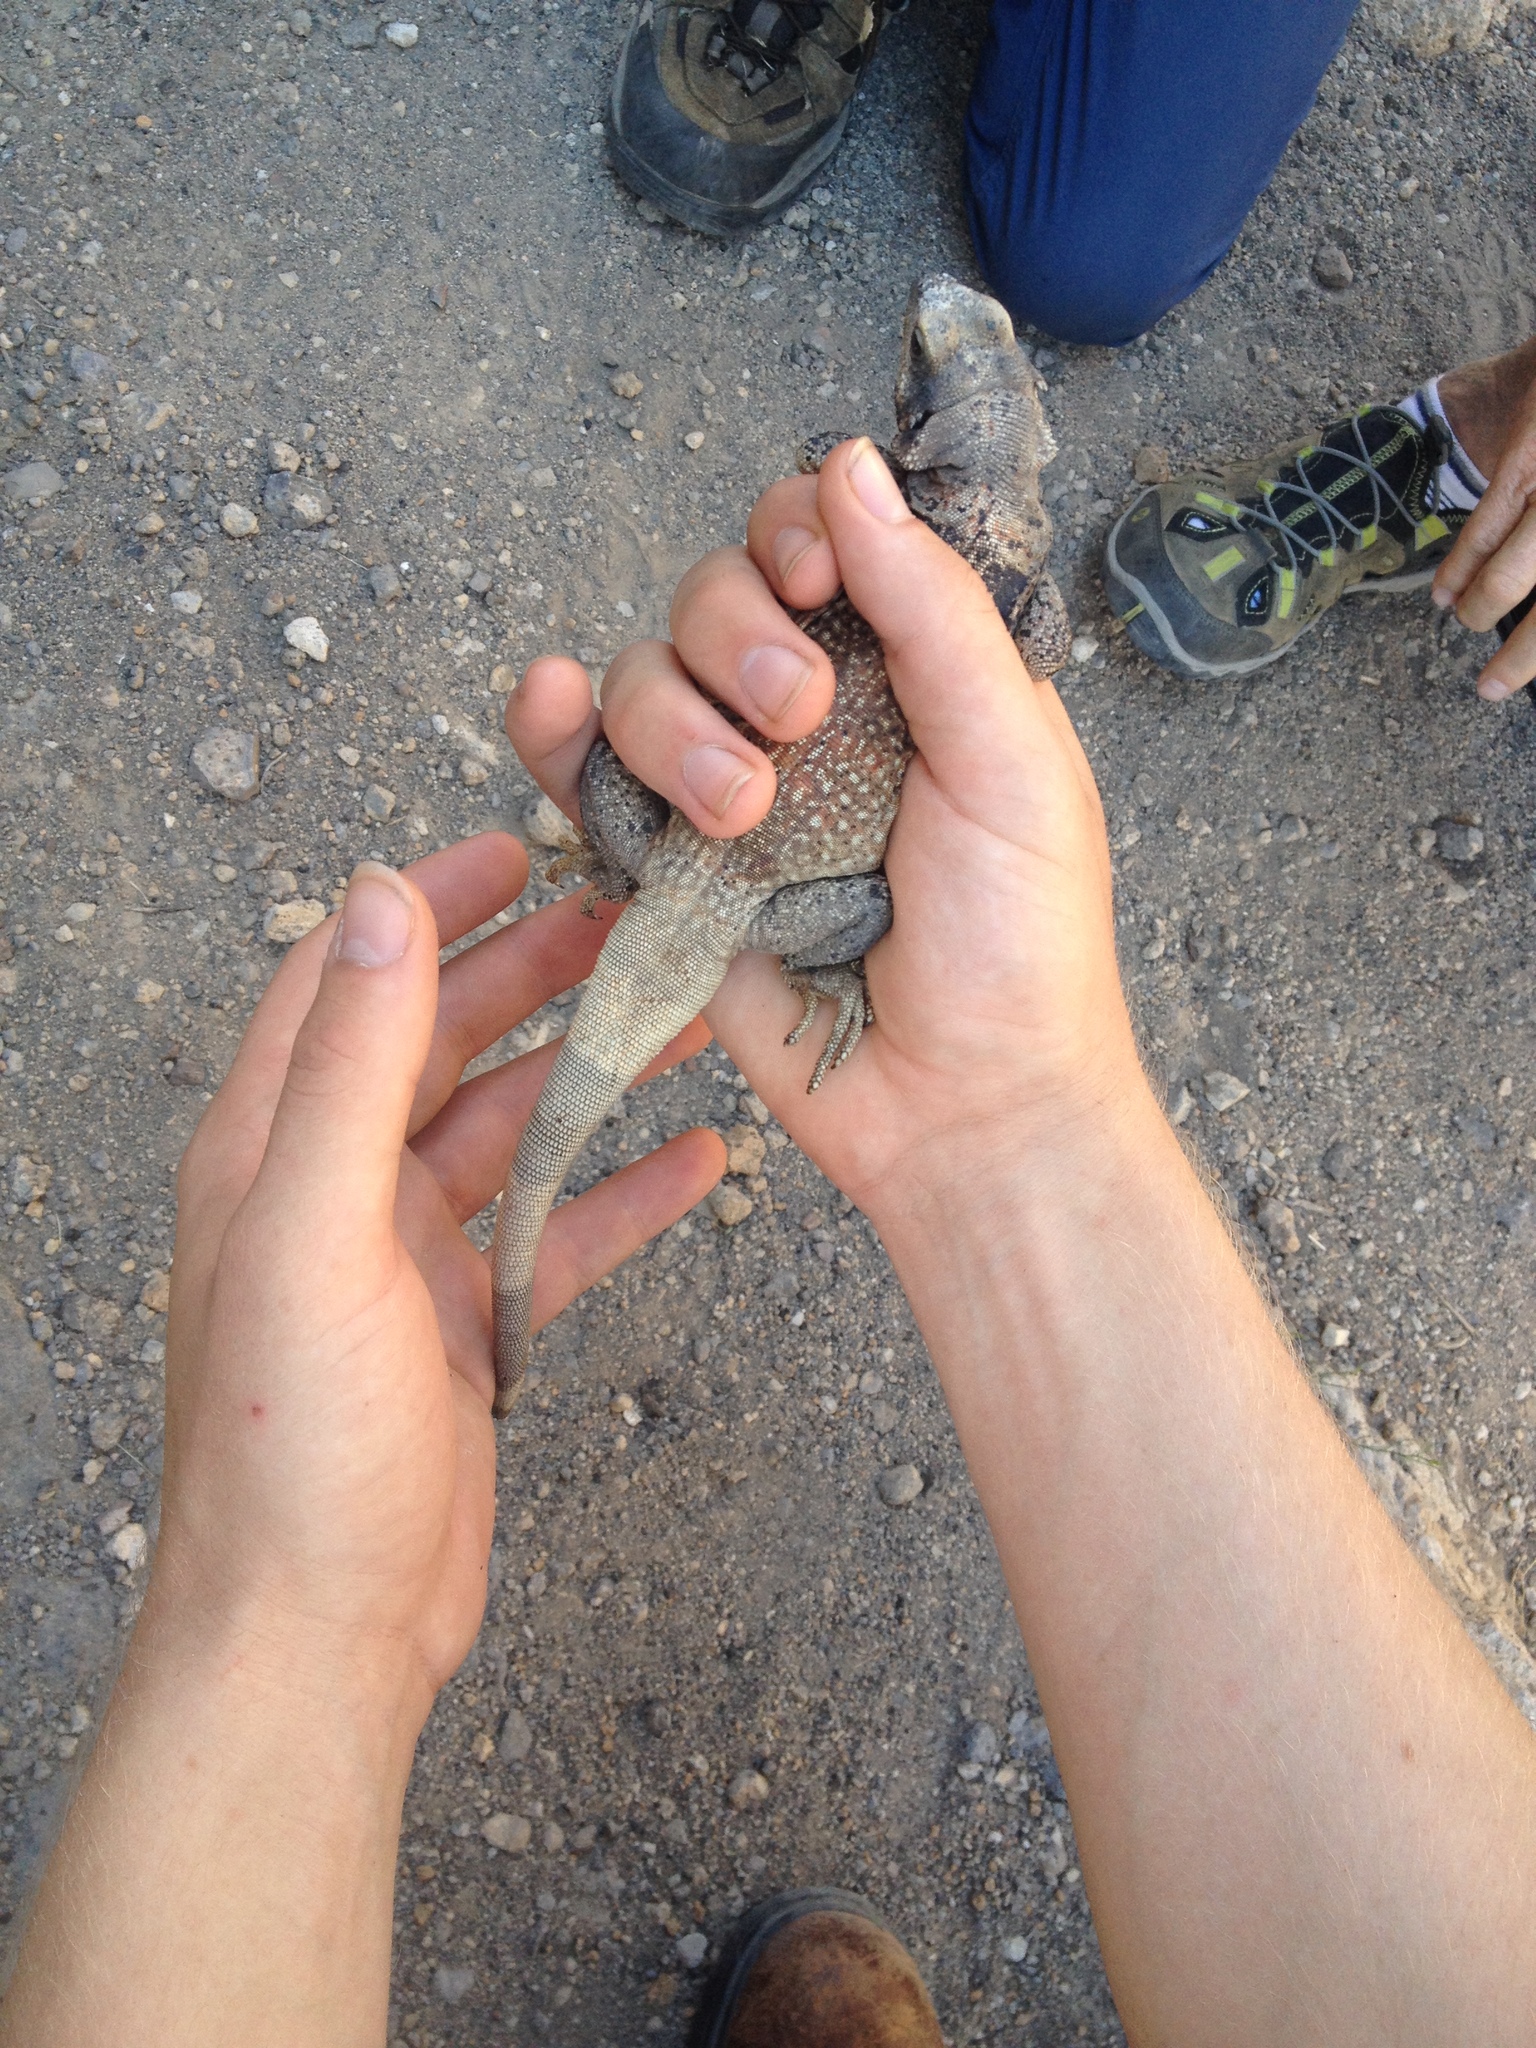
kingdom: Animalia
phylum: Chordata
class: Squamata
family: Iguanidae
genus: Sauromalus
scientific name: Sauromalus ater
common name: Northern chuckwalla
